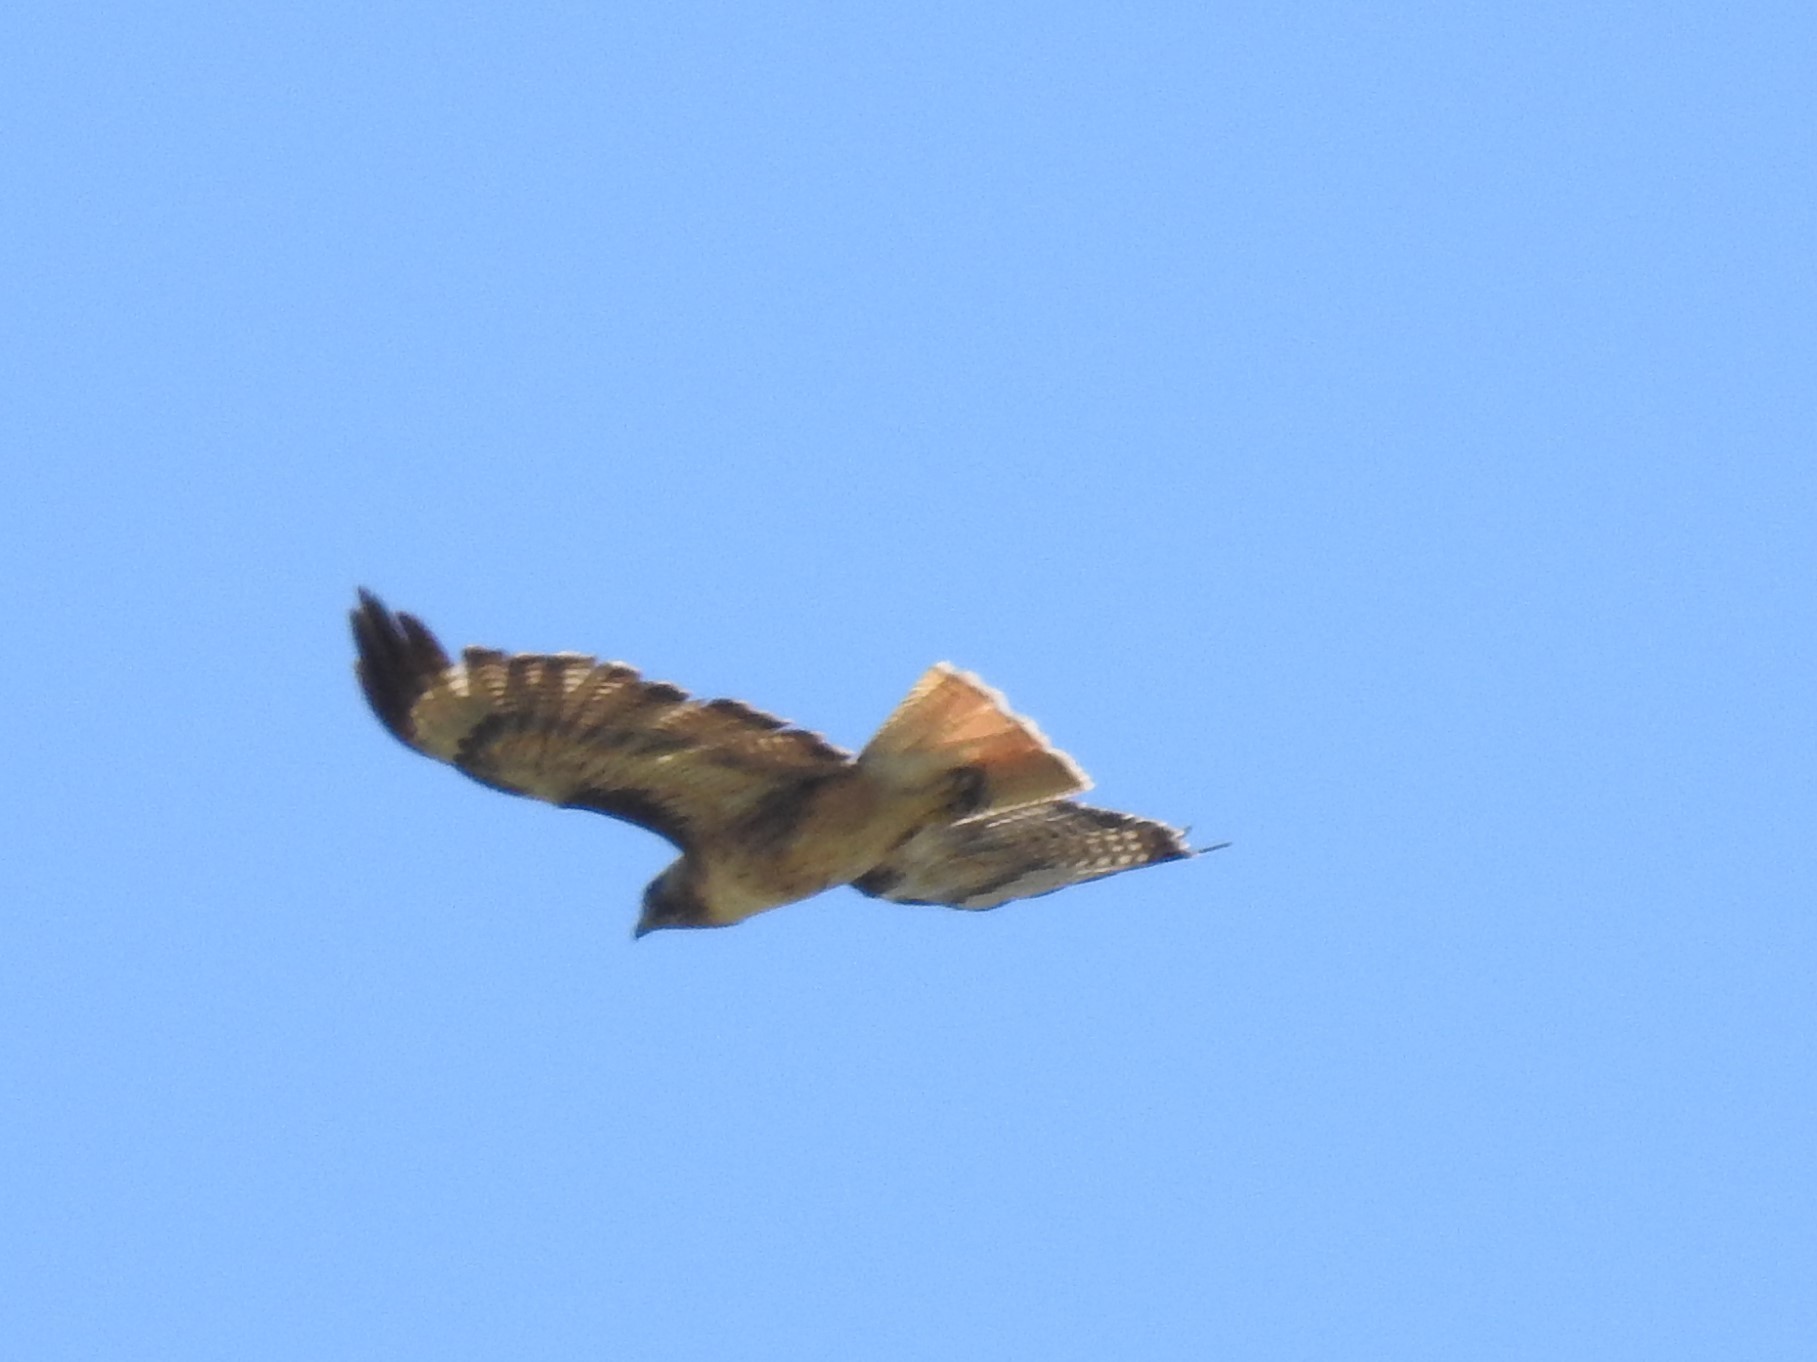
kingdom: Animalia
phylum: Chordata
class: Aves
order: Accipitriformes
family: Accipitridae
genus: Buteo
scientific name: Buteo jamaicensis
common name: Red-tailed hawk
